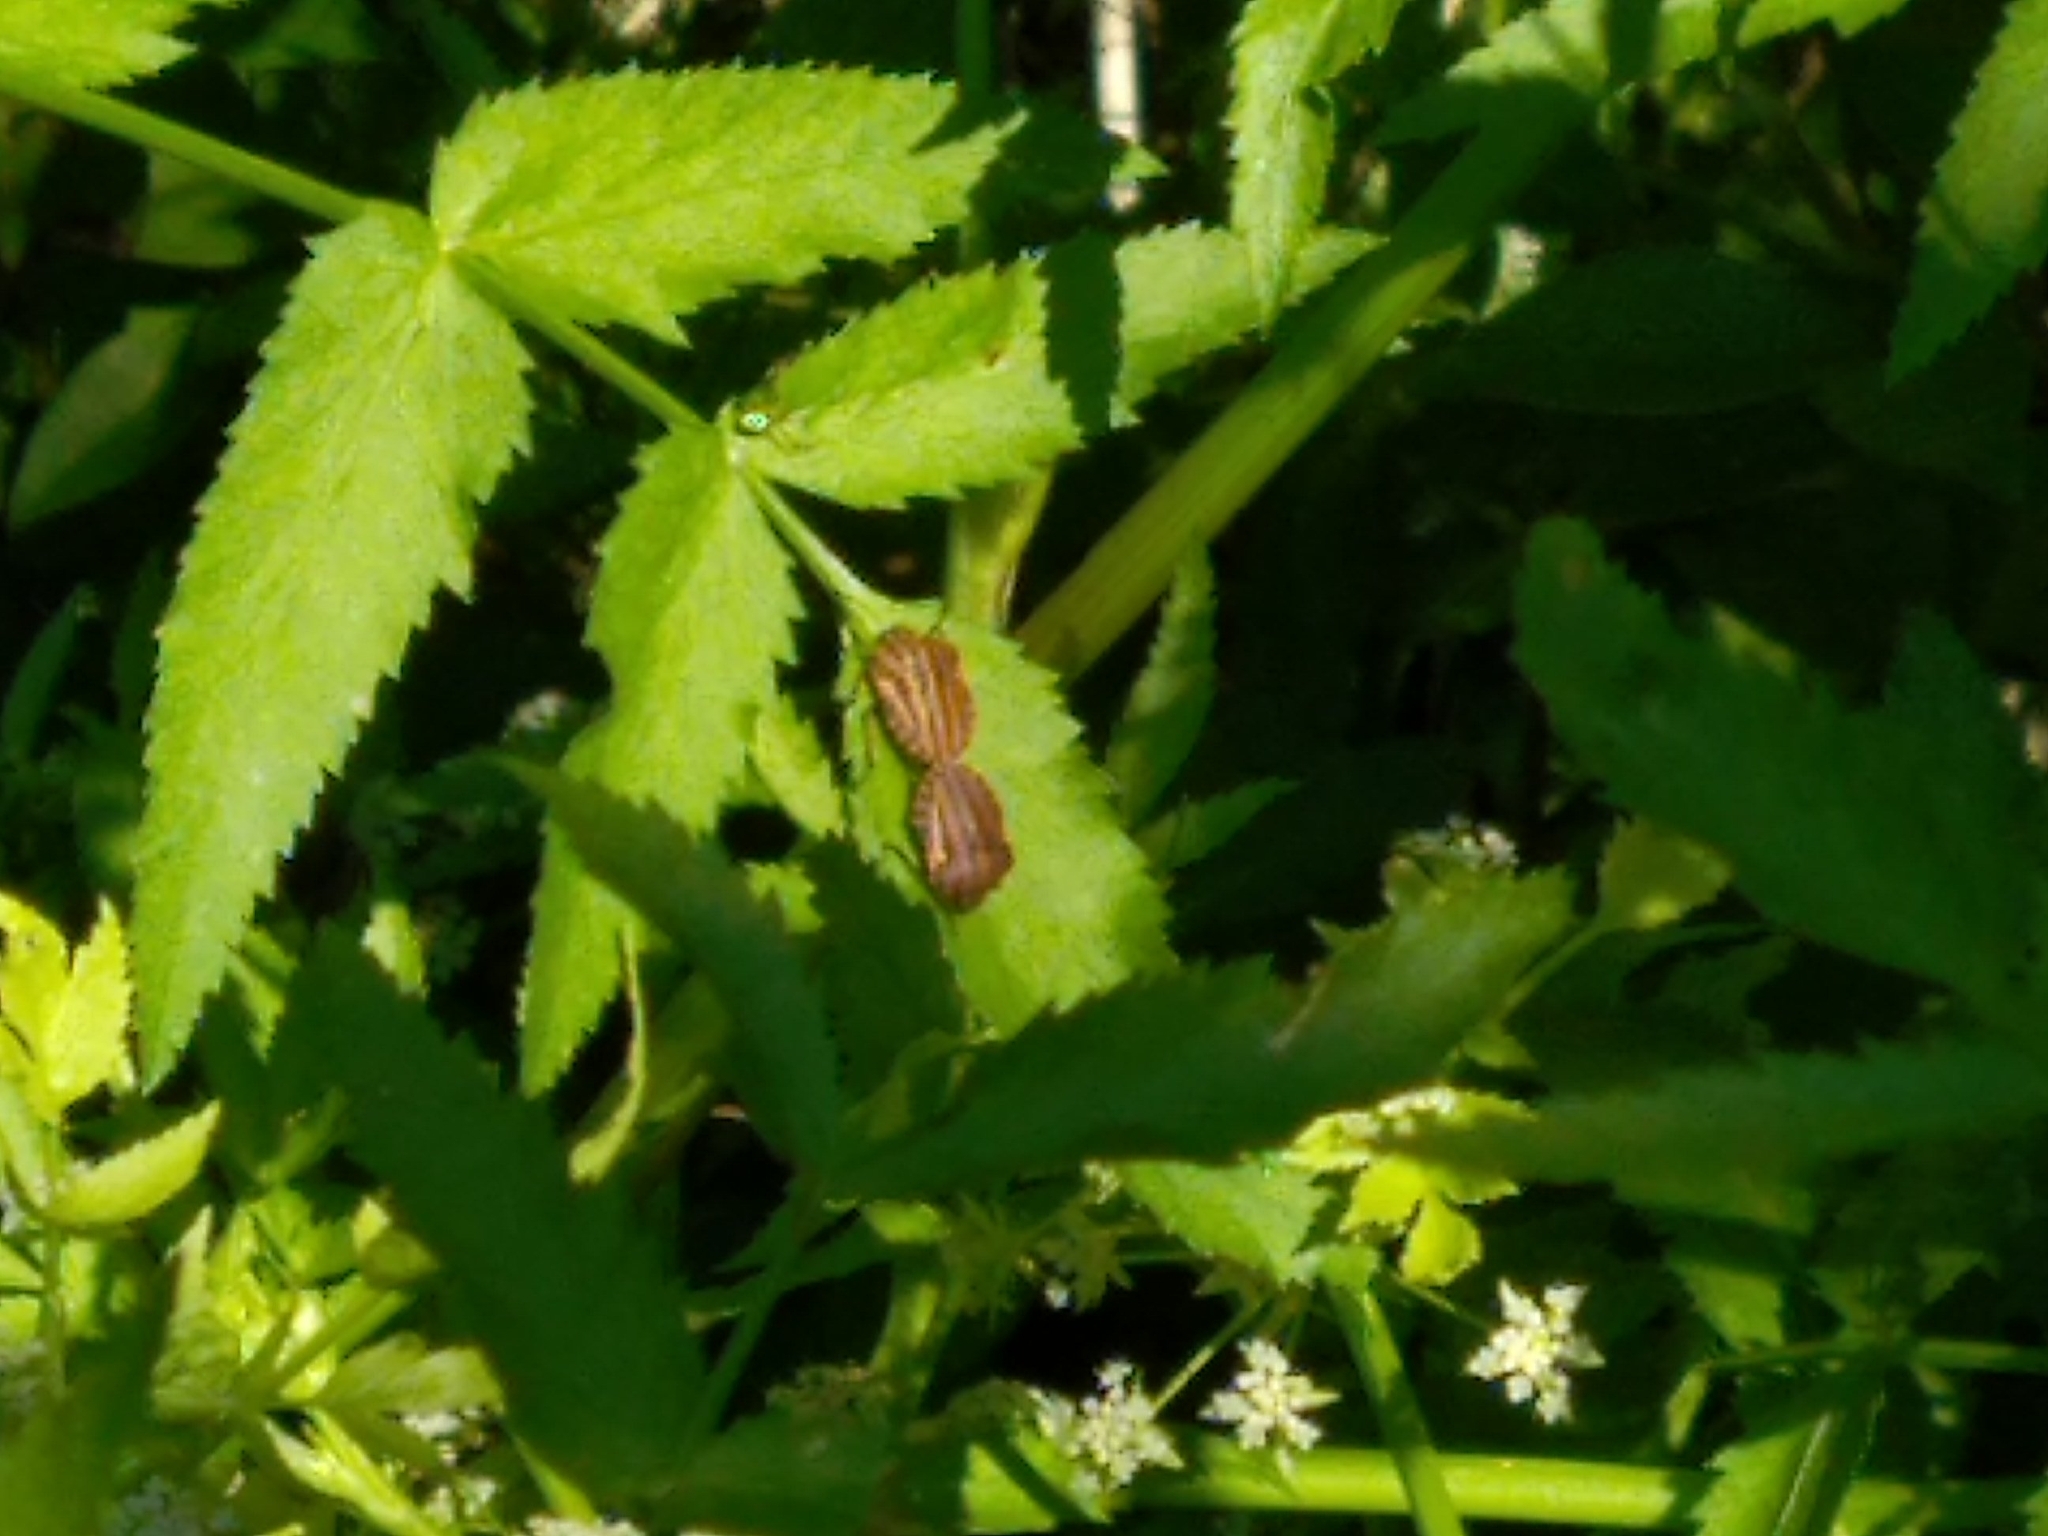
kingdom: Animalia
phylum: Arthropoda
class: Insecta
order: Hemiptera
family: Pentatomidae
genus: Graphosoma
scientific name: Graphosoma italicum
